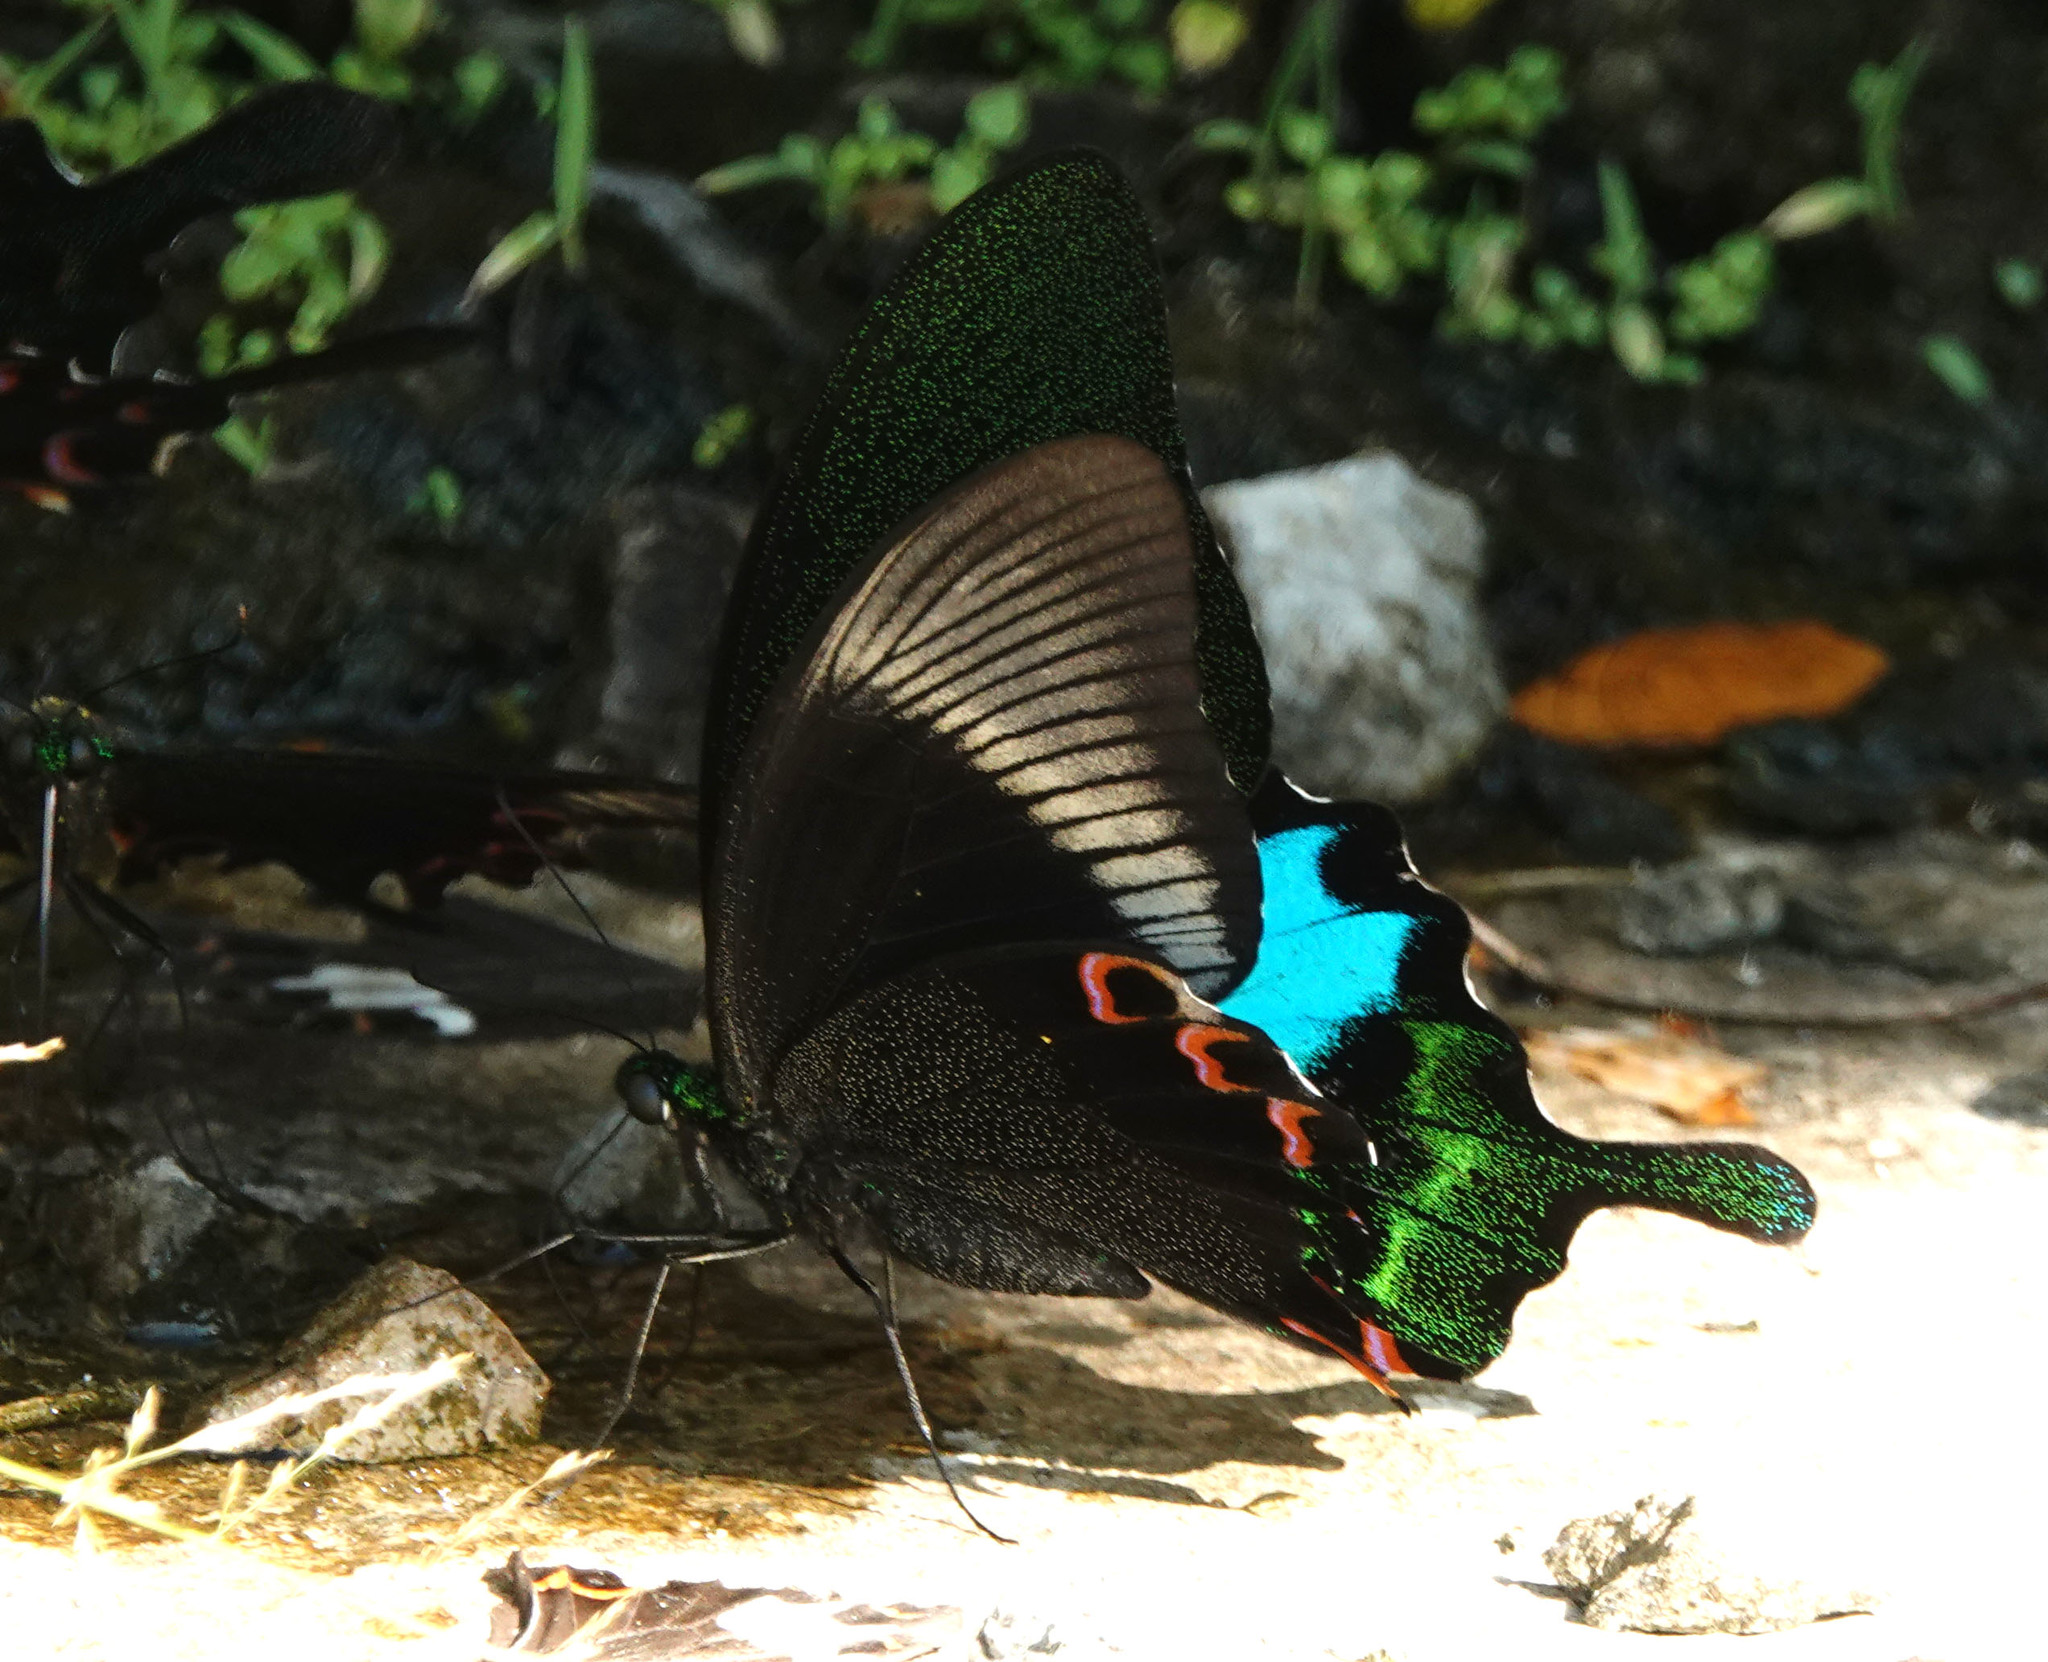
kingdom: Animalia
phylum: Arthropoda
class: Insecta
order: Lepidoptera
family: Papilionidae
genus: Papilio
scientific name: Papilio paris
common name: Paris peacock
